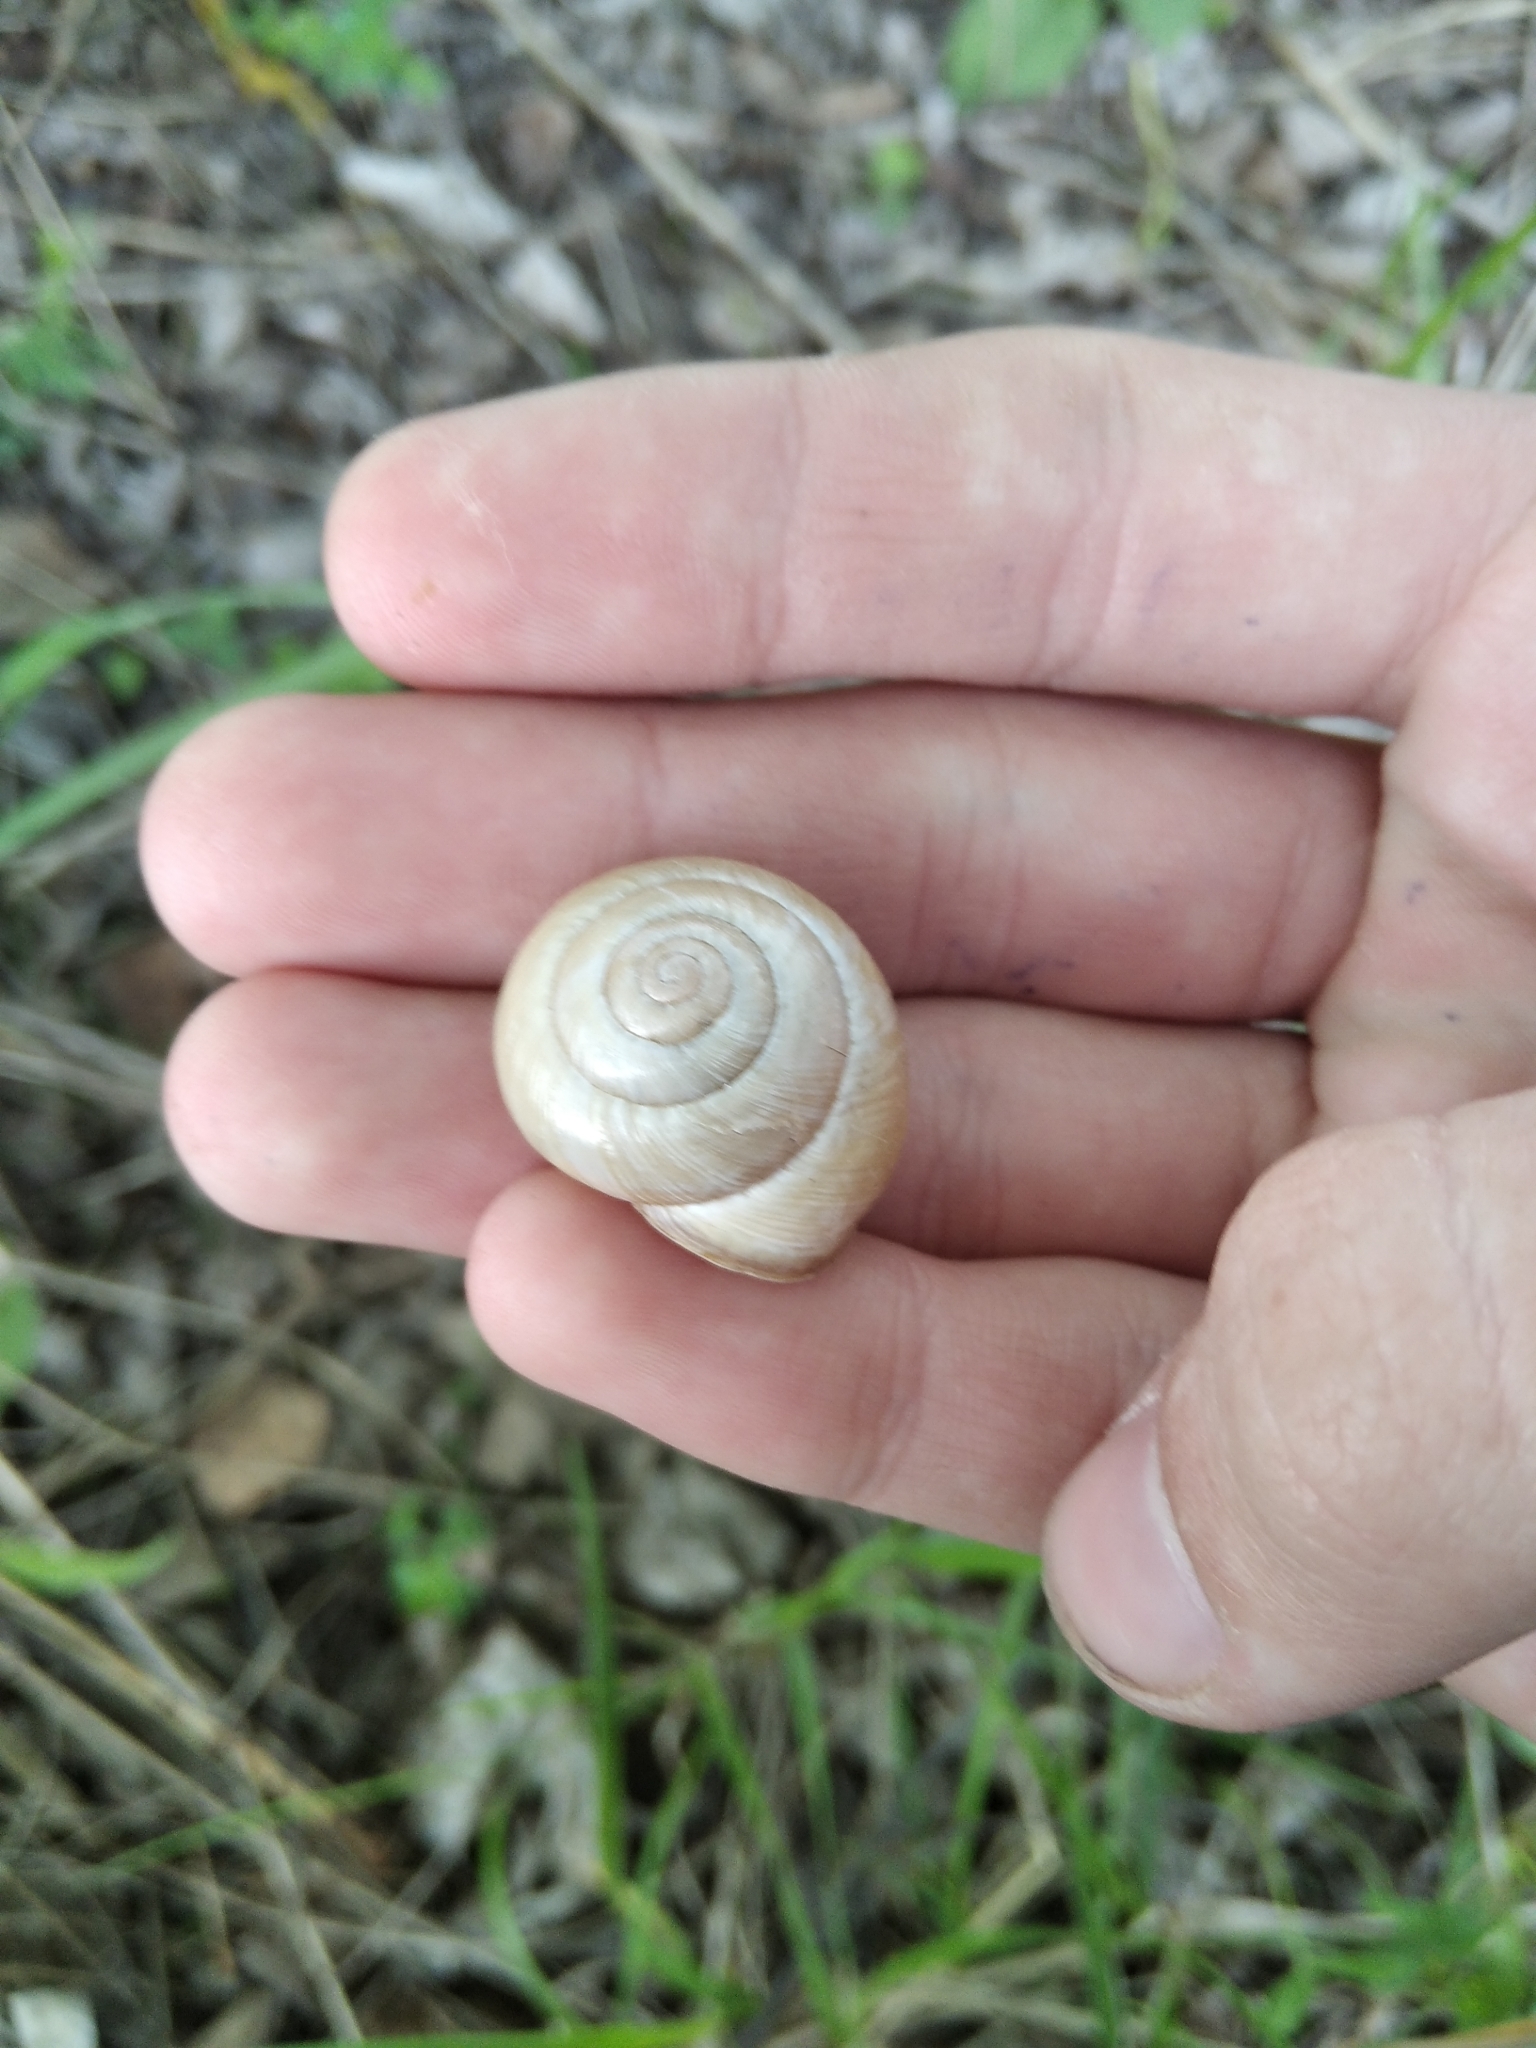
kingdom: Animalia
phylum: Mollusca
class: Gastropoda
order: Stylommatophora
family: Helicidae
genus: Caucasotachea
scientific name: Caucasotachea vindobonensis
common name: European helicid land snail
